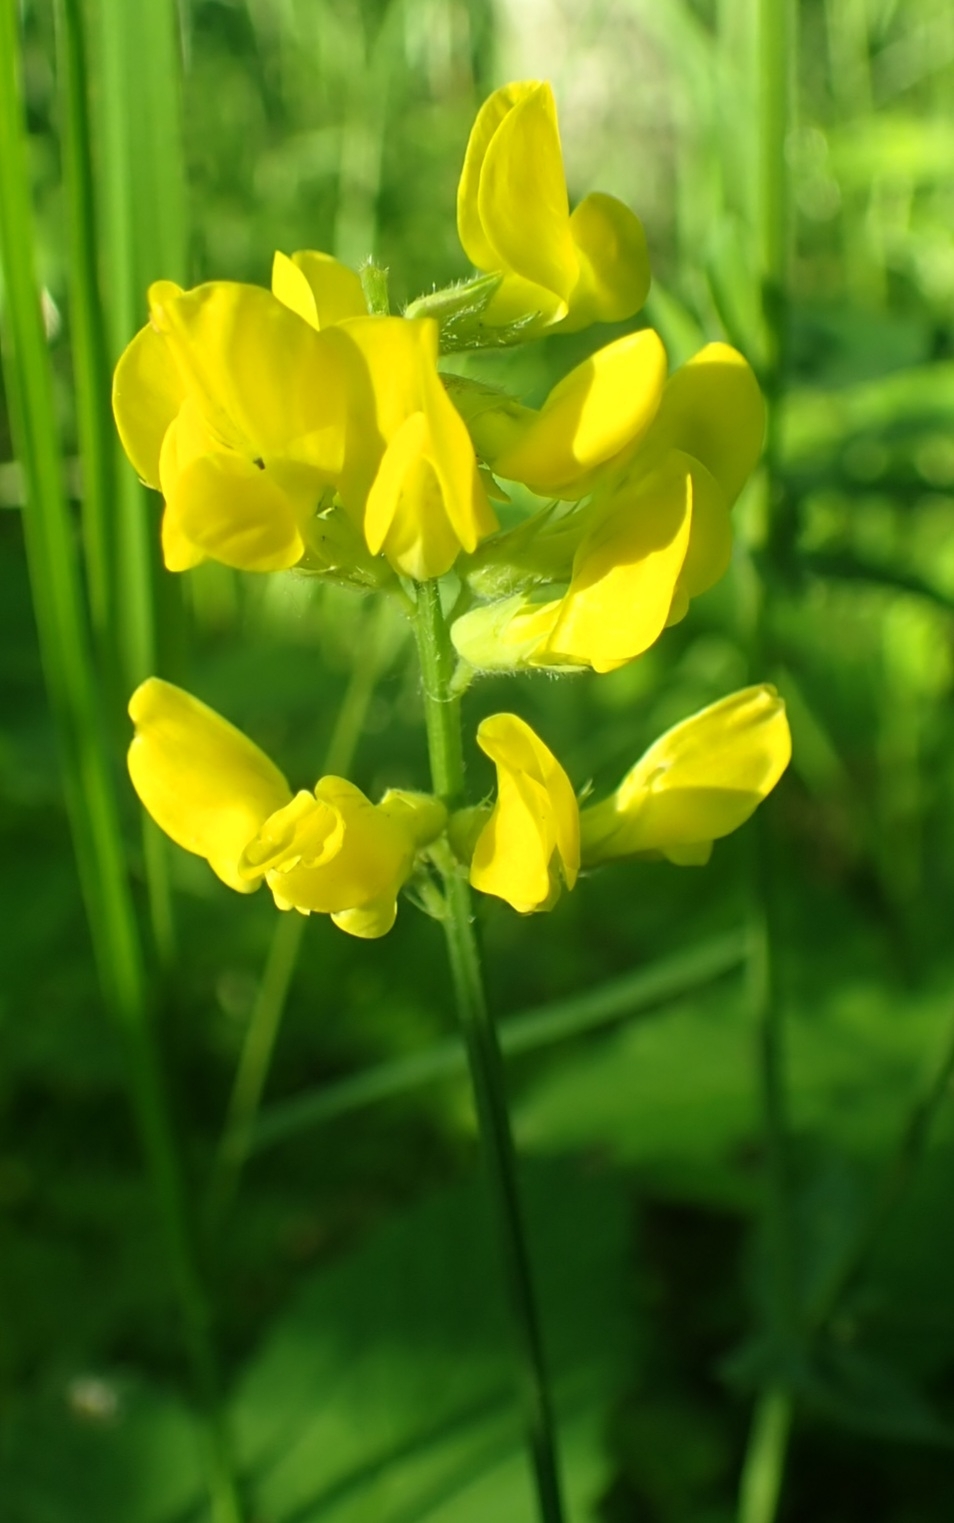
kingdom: Plantae
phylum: Tracheophyta
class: Magnoliopsida
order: Fabales
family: Fabaceae
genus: Lathyrus
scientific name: Lathyrus pratensis
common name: Meadow vetchling
